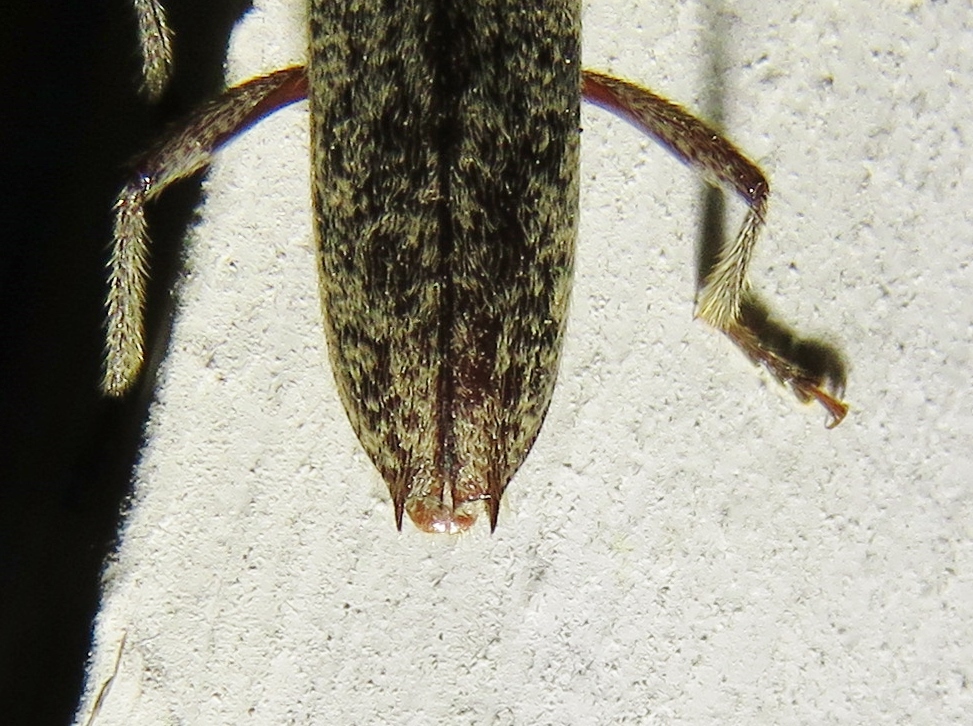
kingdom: Animalia
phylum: Arthropoda
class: Insecta
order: Coleoptera
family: Cerambycidae
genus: Elaphidion
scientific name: Elaphidion mucronatum
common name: Spined oak borer
